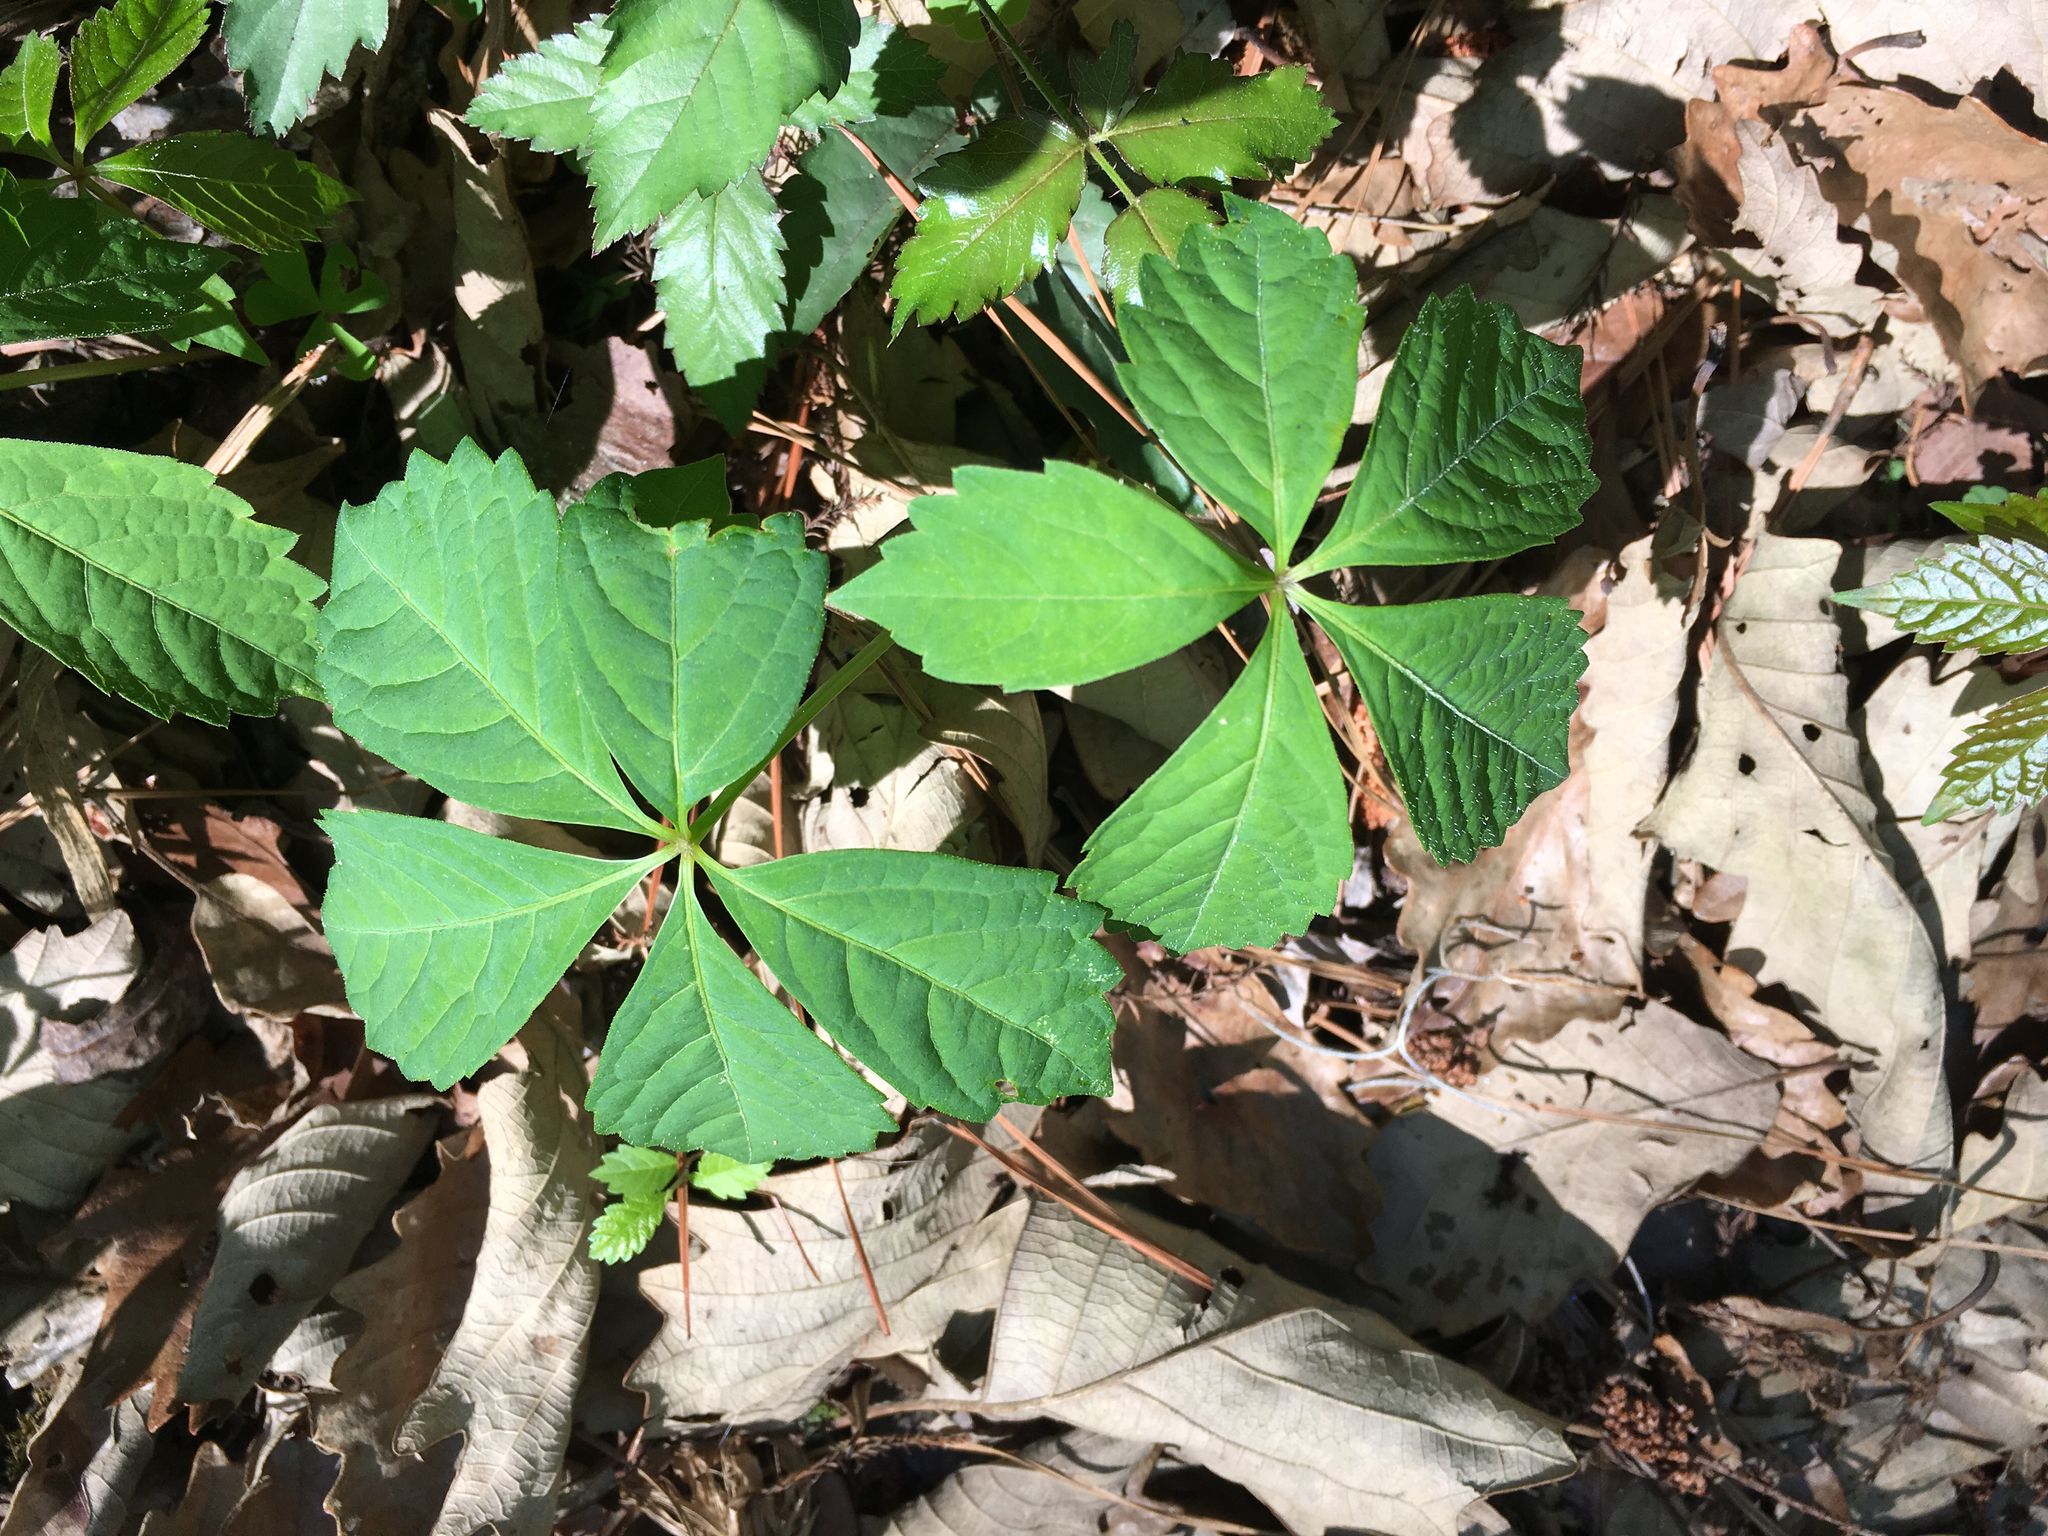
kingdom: Plantae
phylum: Tracheophyta
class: Magnoliopsida
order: Vitales
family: Vitaceae
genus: Parthenocissus
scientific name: Parthenocissus quinquefolia
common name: Virginia-creeper
